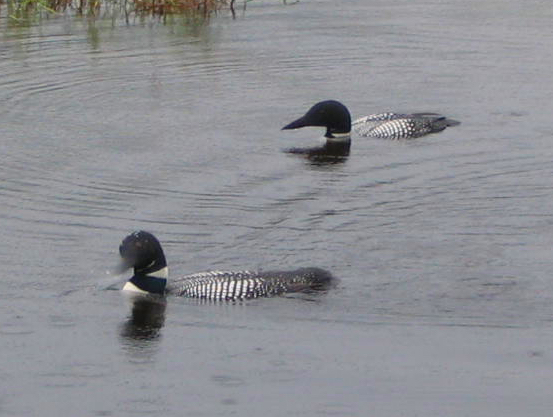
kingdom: Animalia
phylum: Chordata
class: Aves
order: Gaviiformes
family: Gaviidae
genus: Gavia
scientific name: Gavia immer
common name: Common loon
